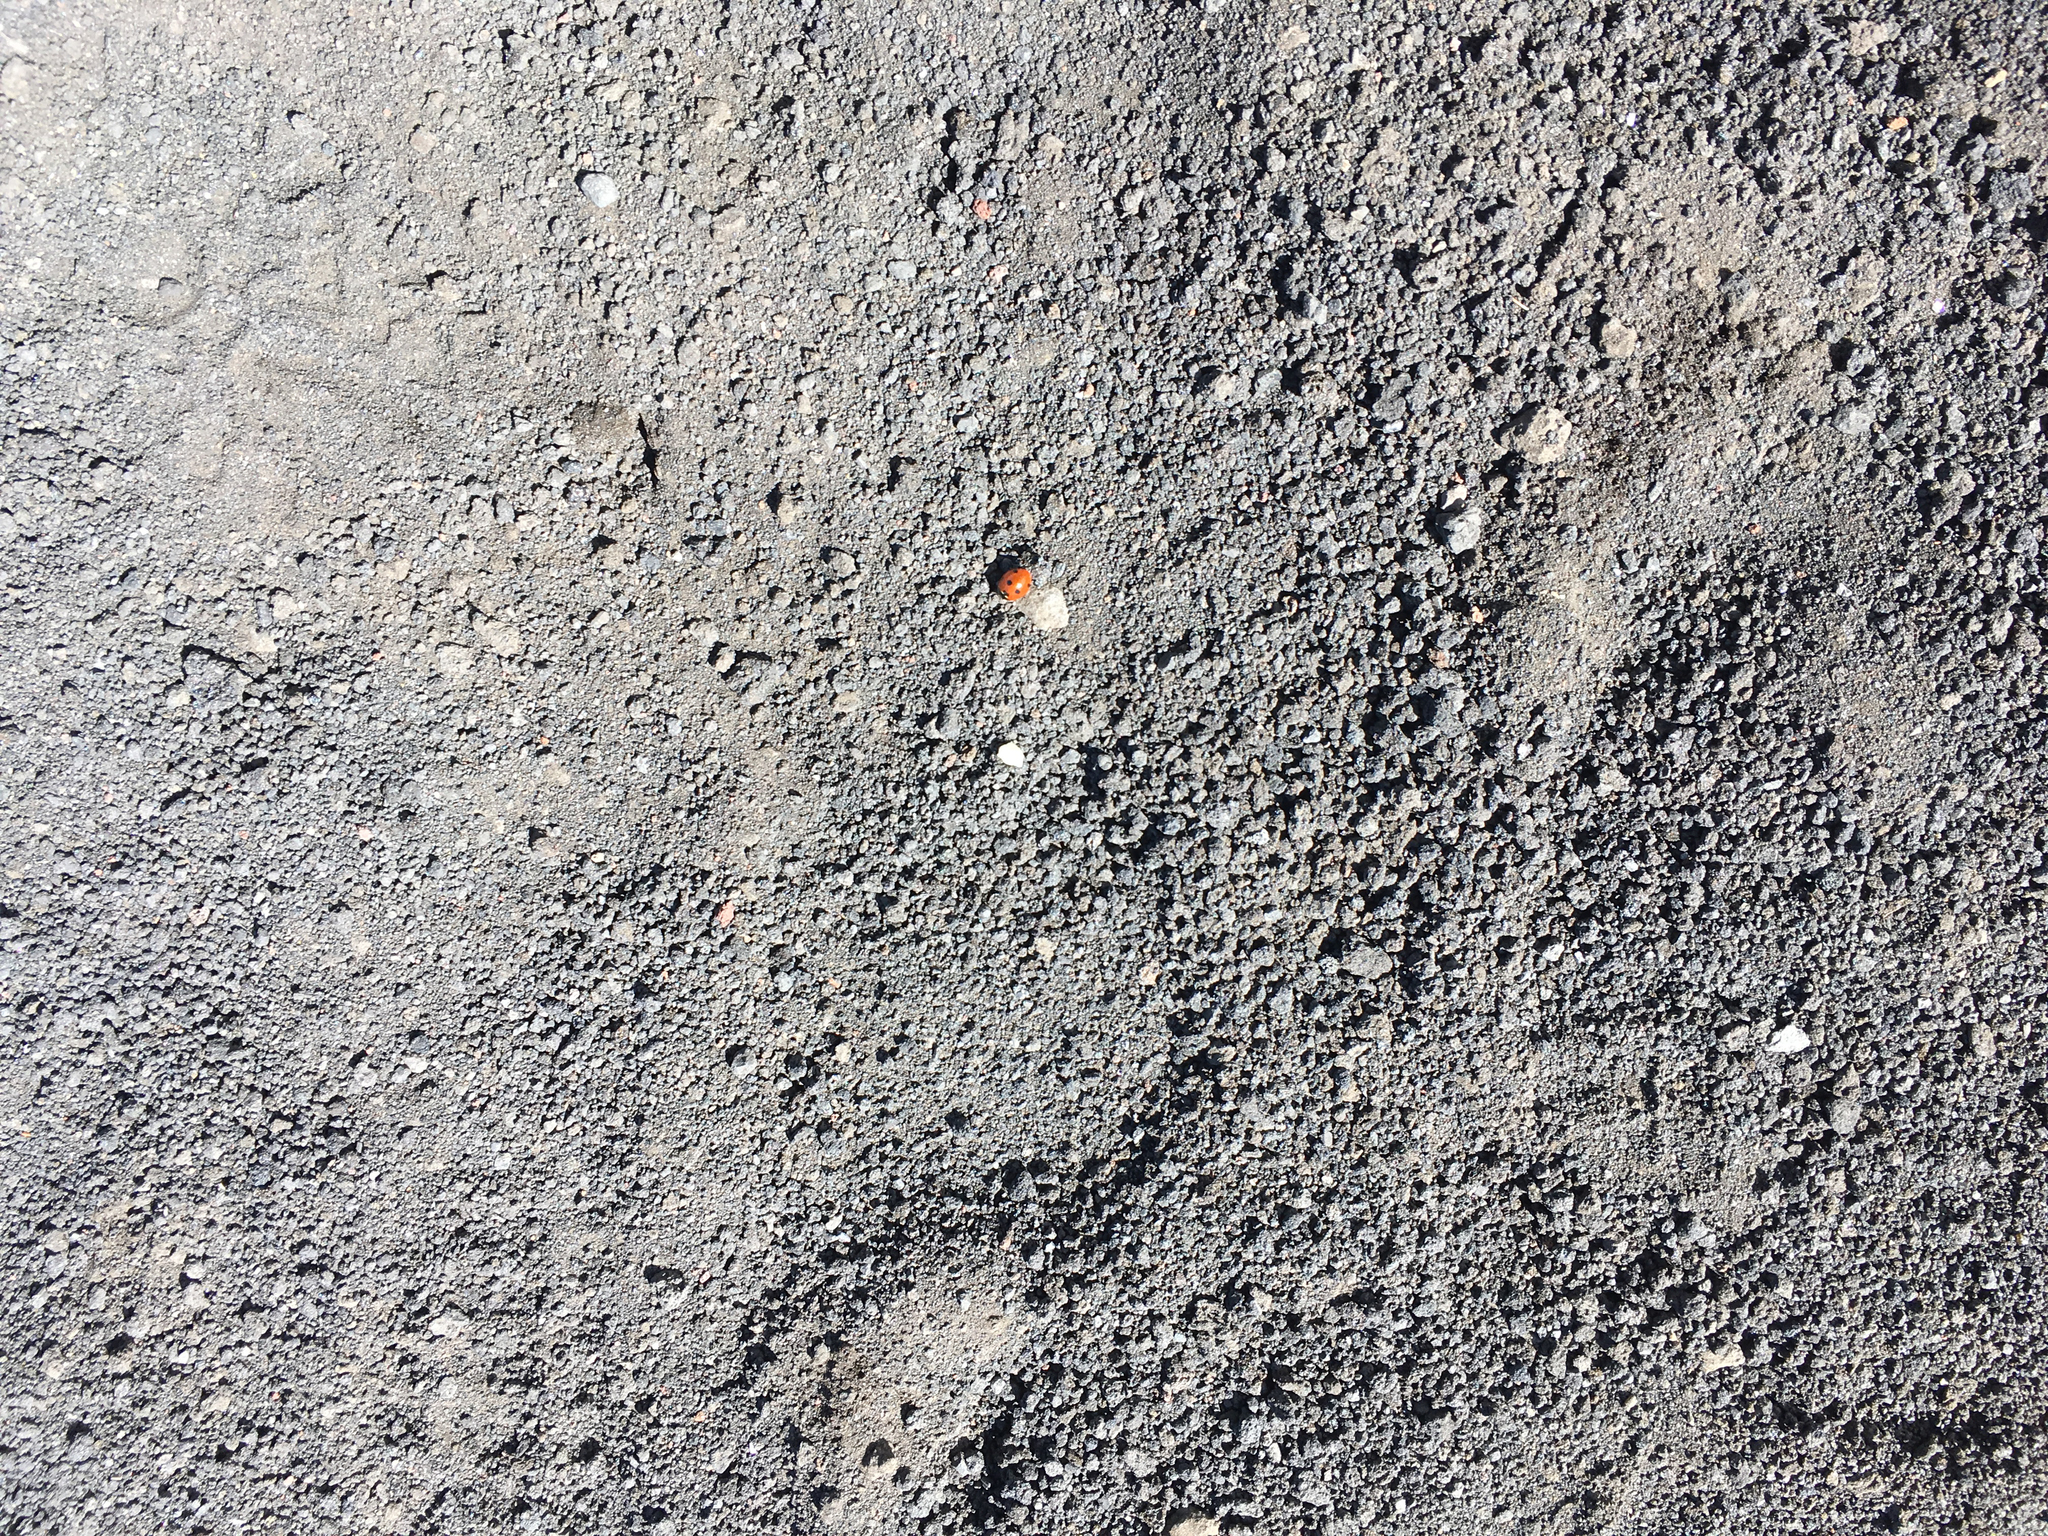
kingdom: Animalia
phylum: Arthropoda
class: Insecta
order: Coleoptera
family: Coccinellidae
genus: Coccinella
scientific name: Coccinella septempunctata
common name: Sevenspotted lady beetle
